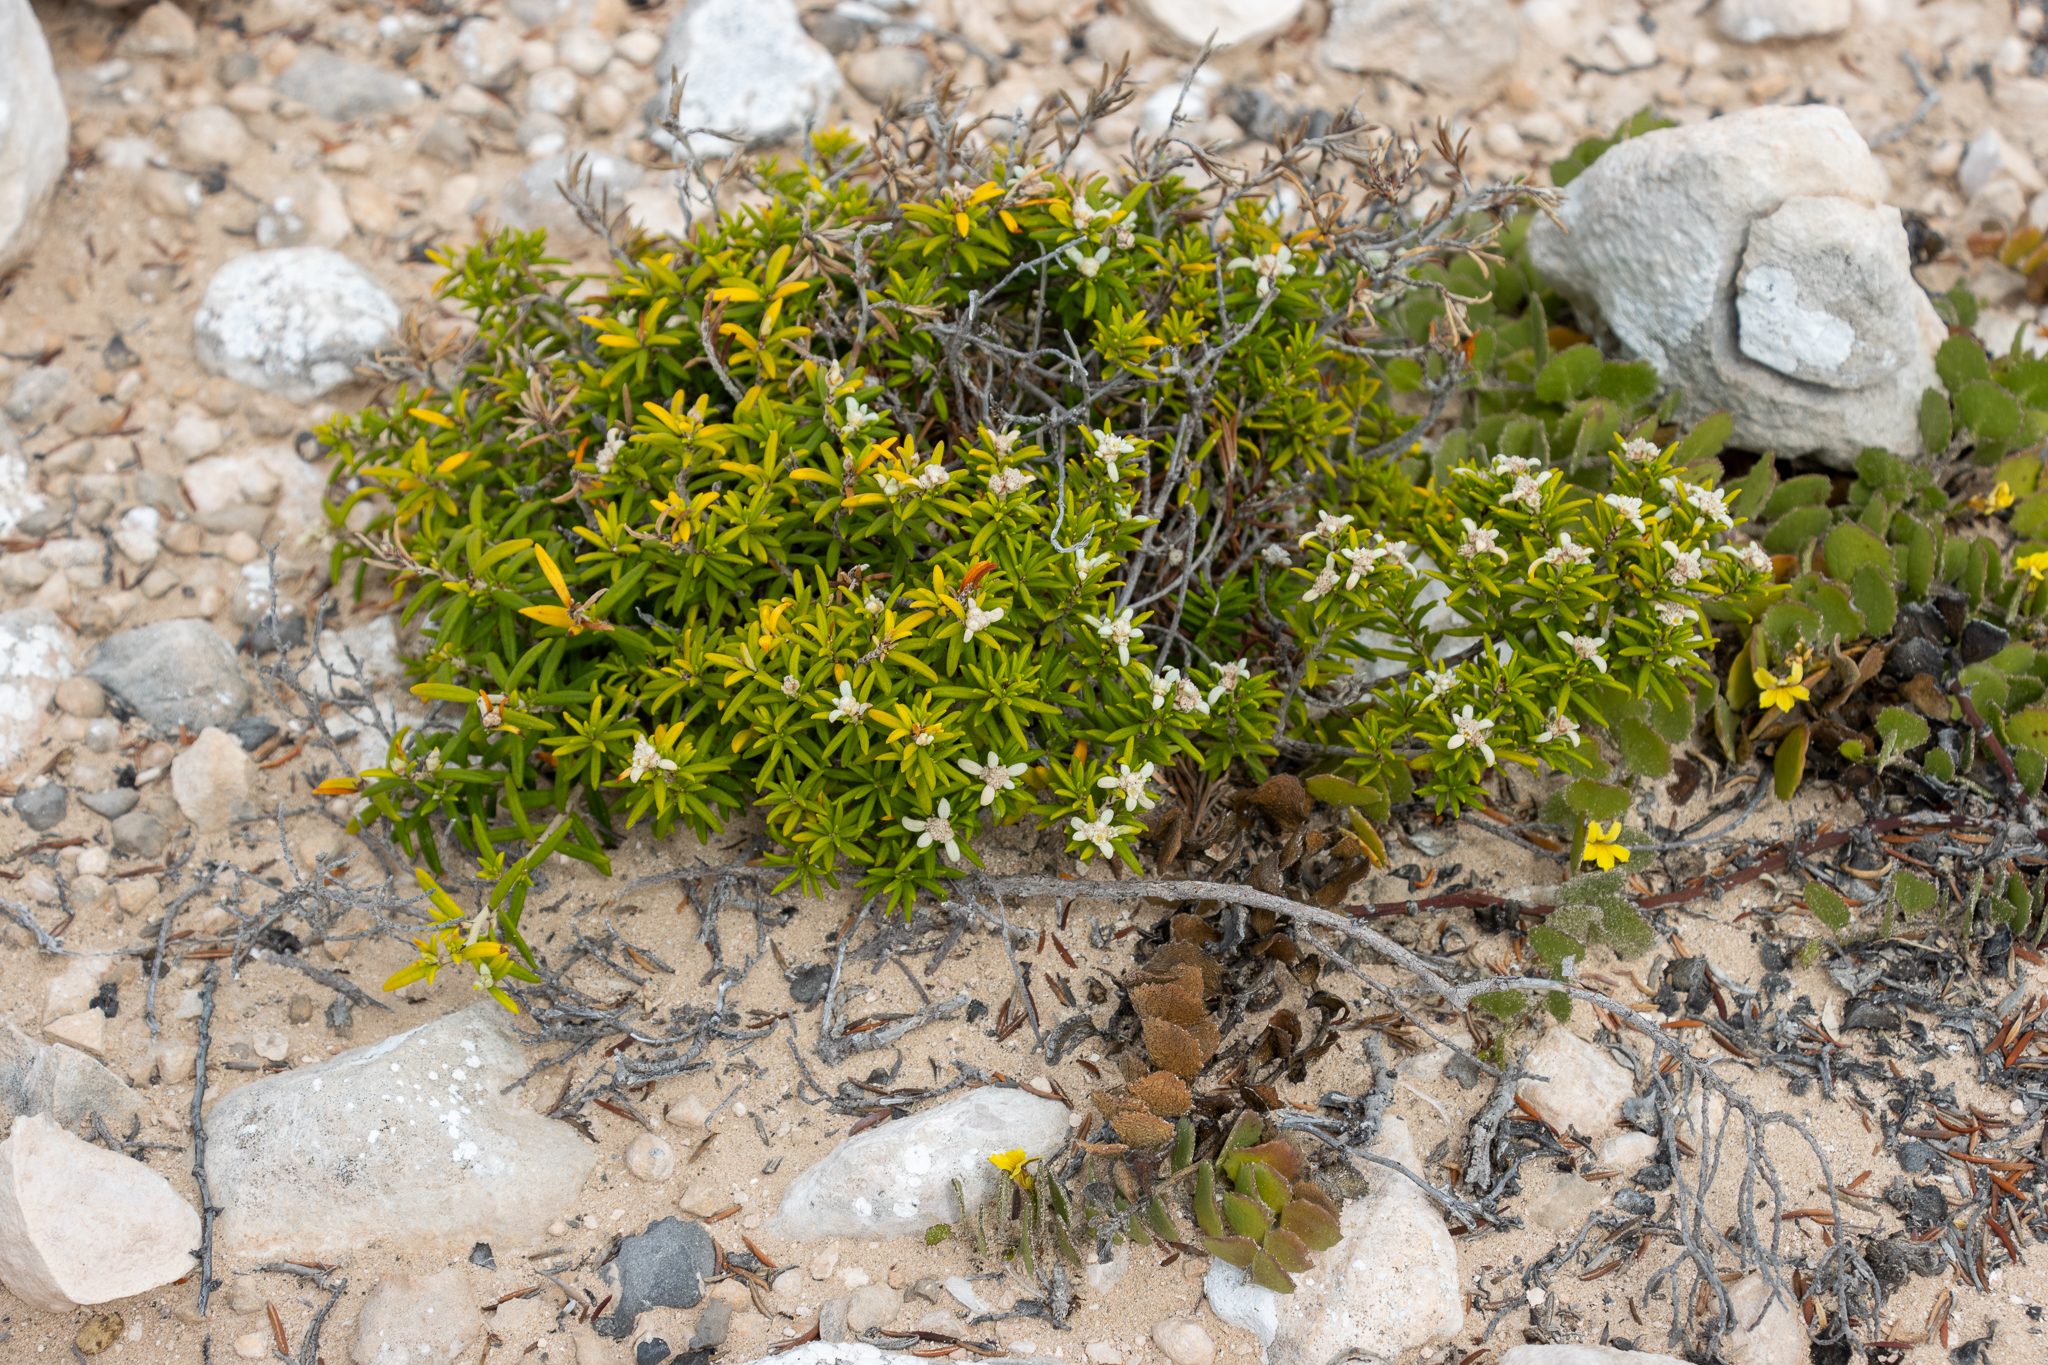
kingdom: Plantae
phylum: Tracheophyta
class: Magnoliopsida
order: Rosales
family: Rhamnaceae
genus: Spyridium
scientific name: Spyridium phylicoides
